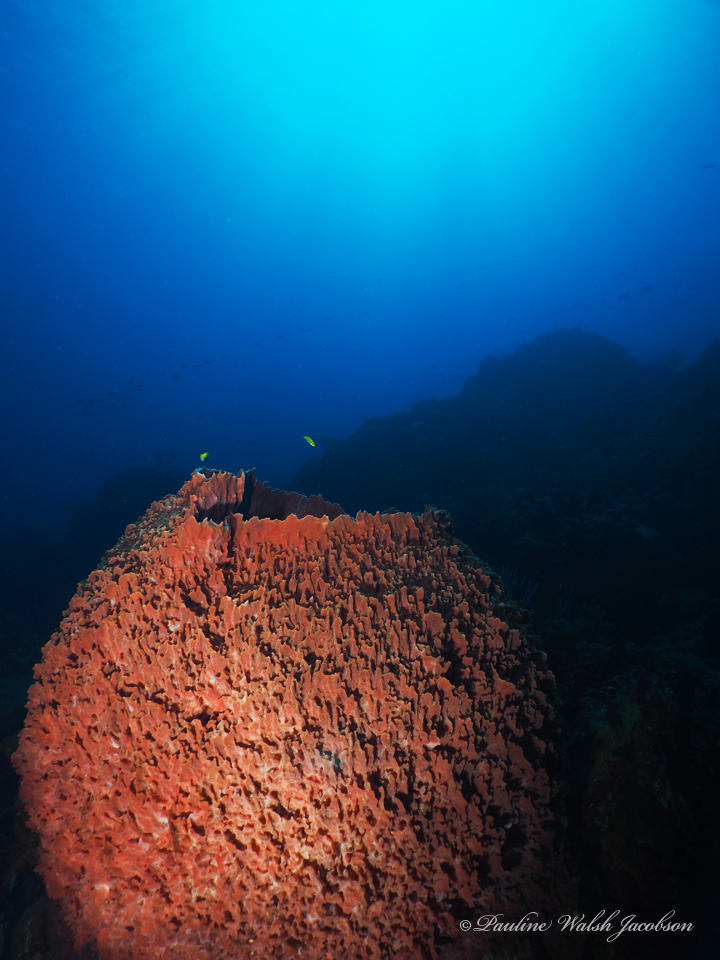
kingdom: Animalia
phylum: Porifera
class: Demospongiae
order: Haplosclerida
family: Petrosiidae
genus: Xestospongia
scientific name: Xestospongia muta
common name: Giant barrel sponge
